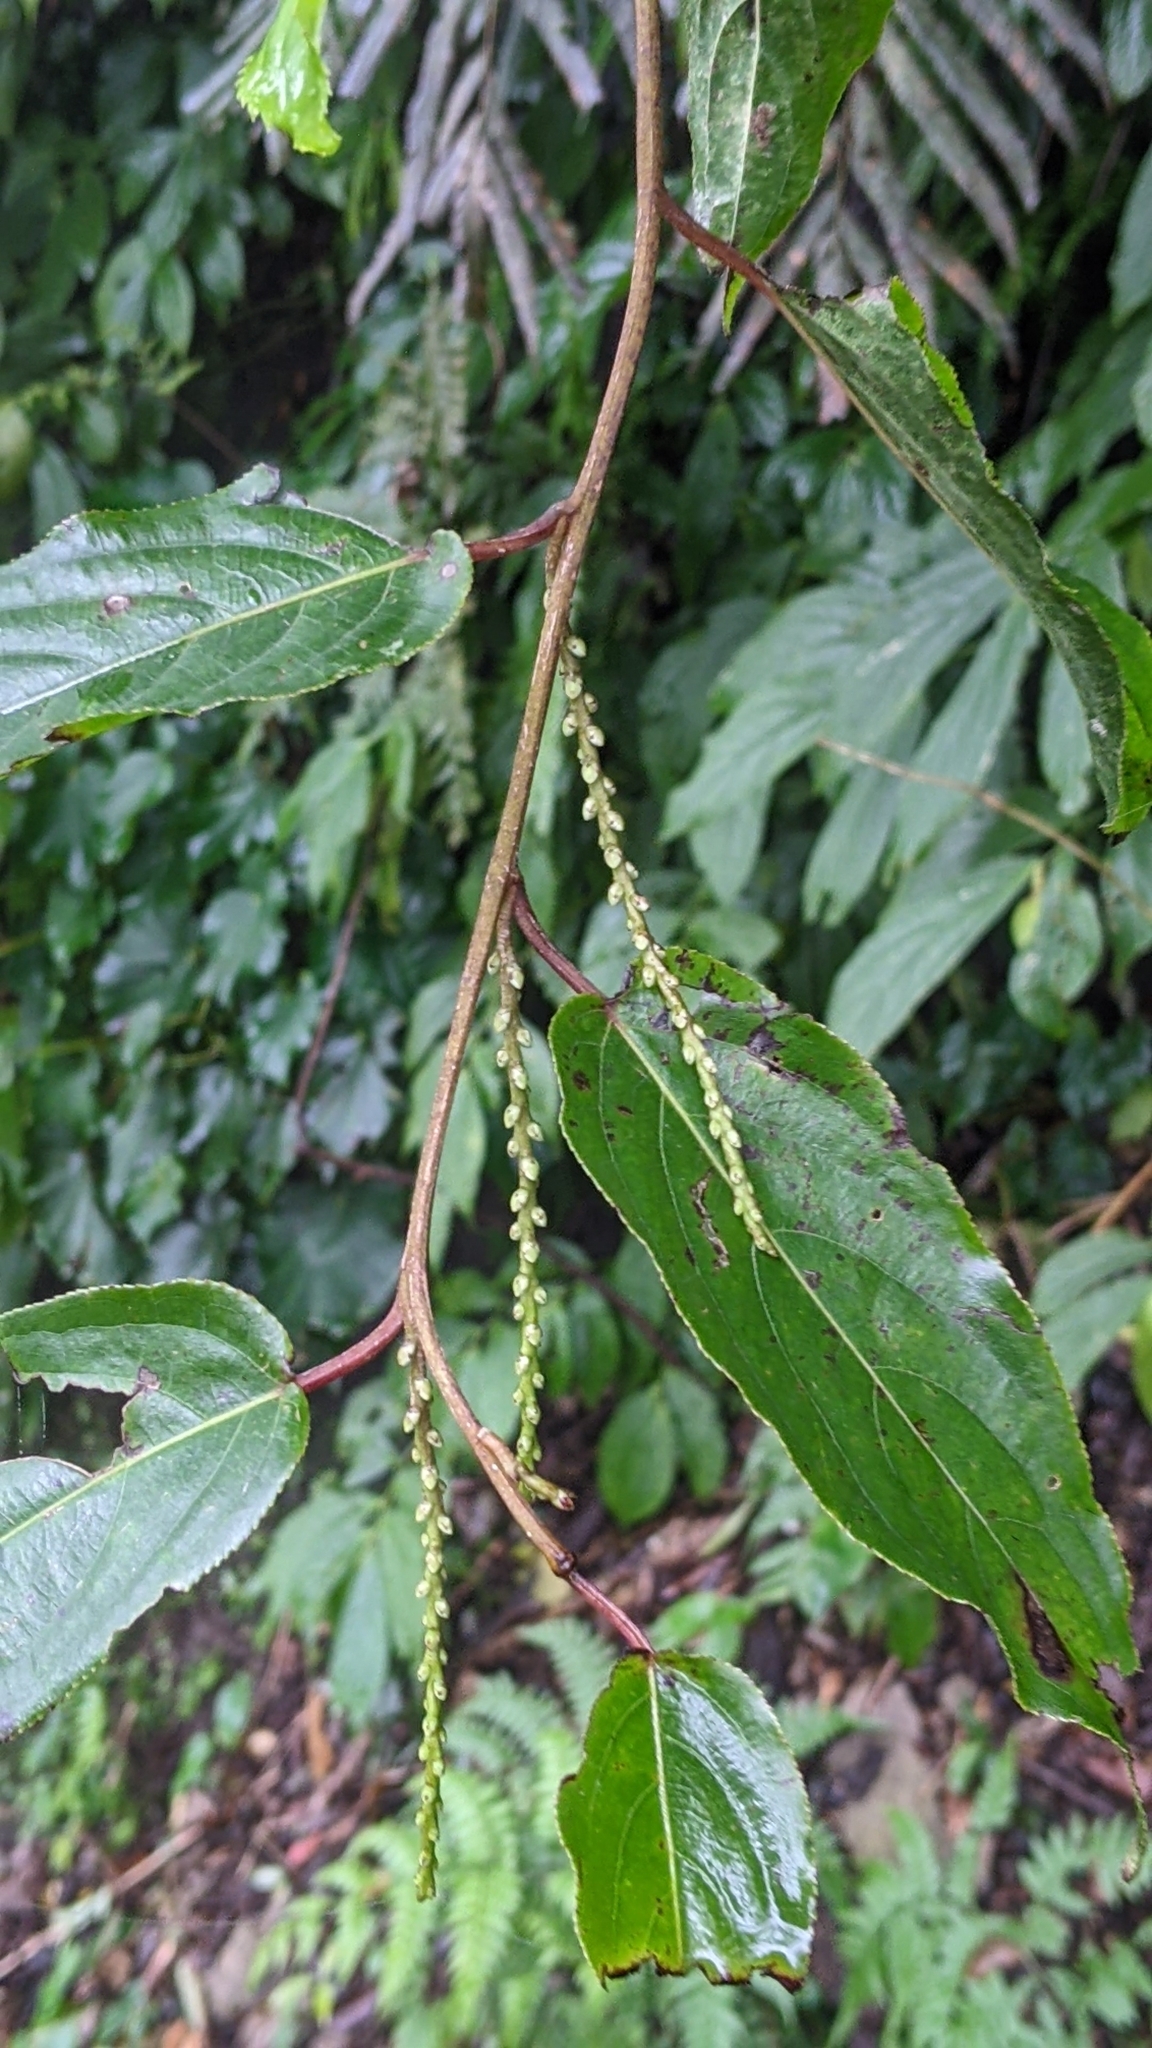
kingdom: Plantae
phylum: Tracheophyta
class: Magnoliopsida
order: Crossosomatales
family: Stachyuraceae
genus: Stachyurus
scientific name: Stachyurus himalaicus
